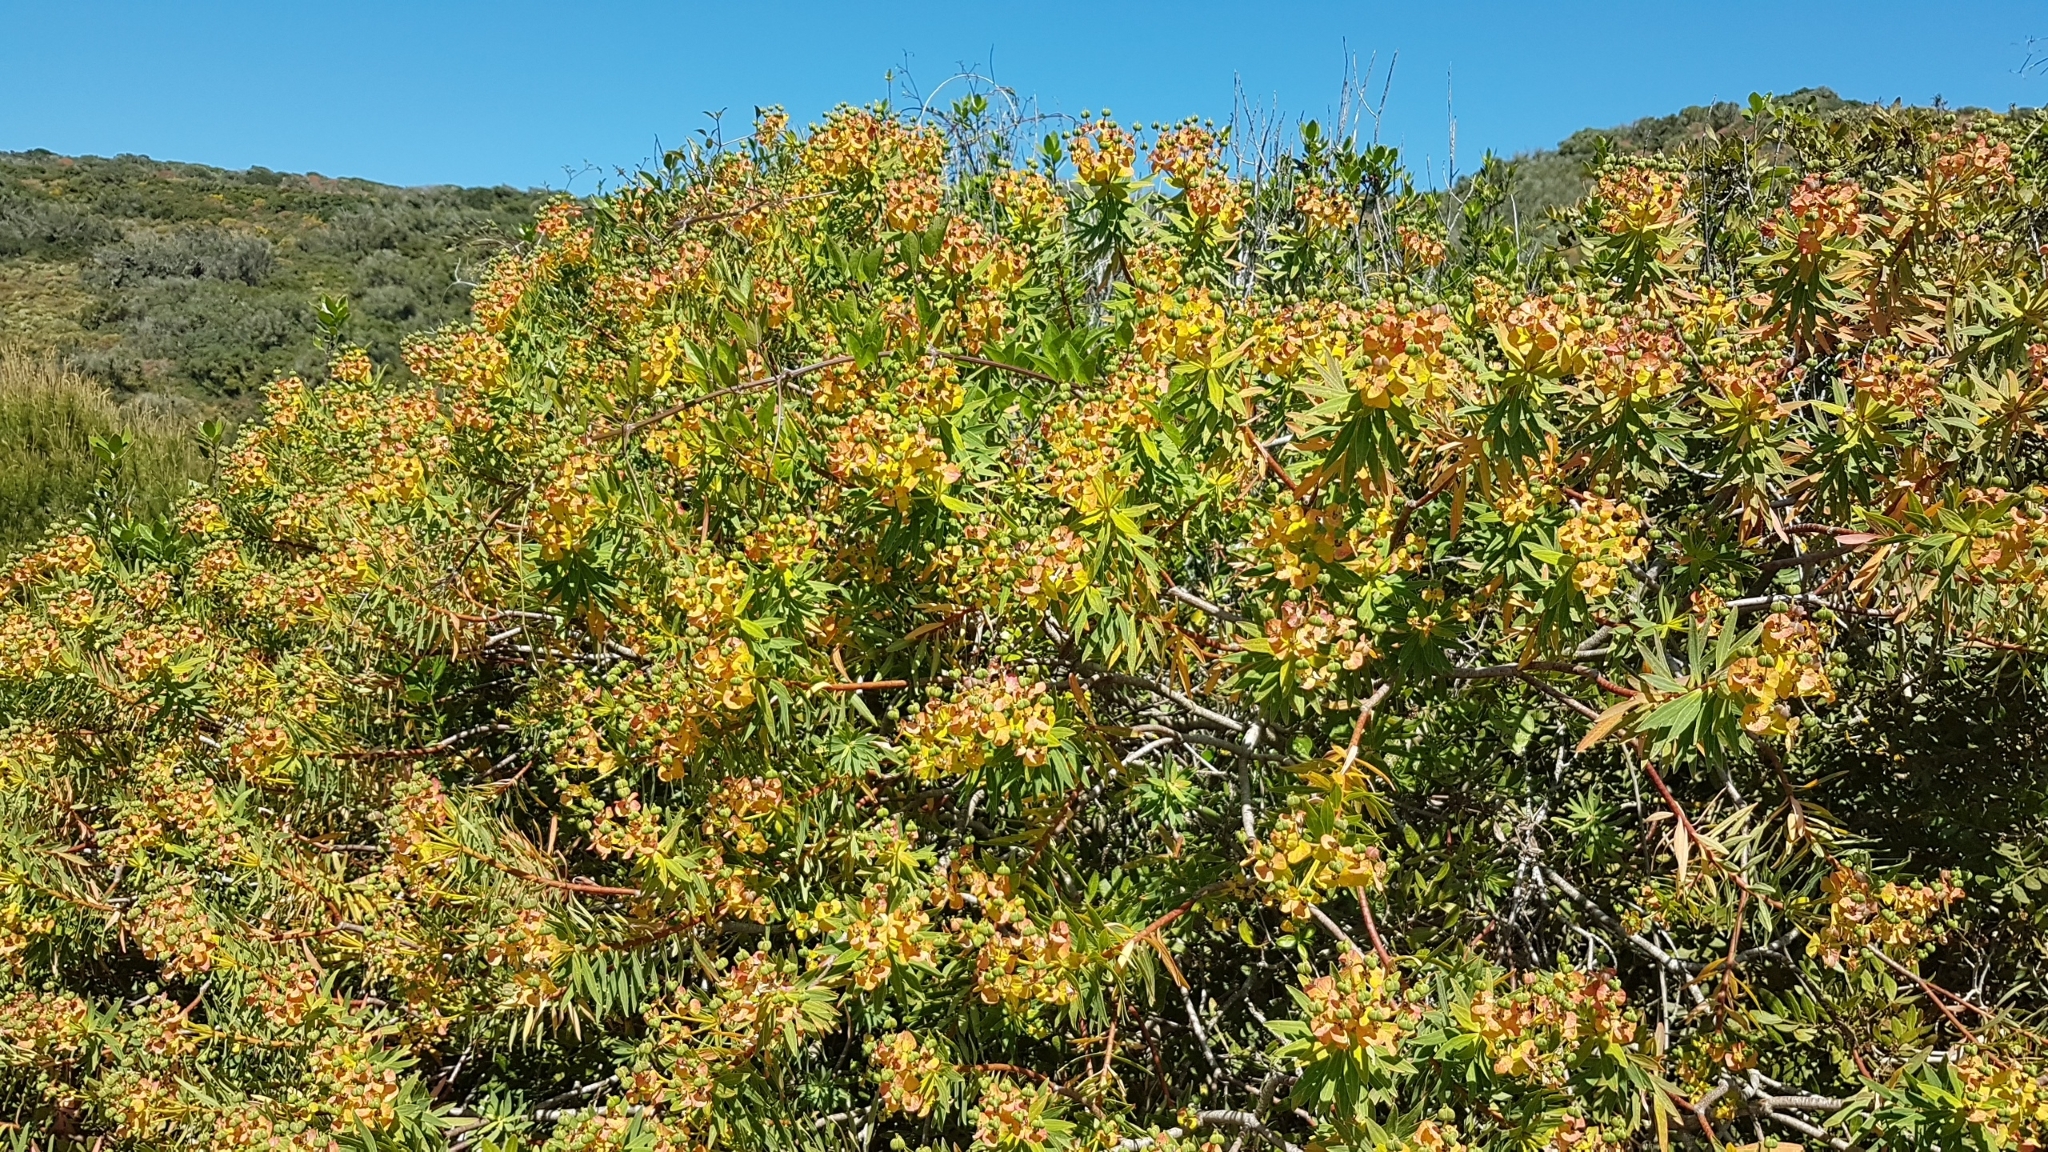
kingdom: Plantae
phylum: Tracheophyta
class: Magnoliopsida
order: Malpighiales
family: Euphorbiaceae
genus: Euphorbia
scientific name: Euphorbia dendroides
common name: Tree spurge
